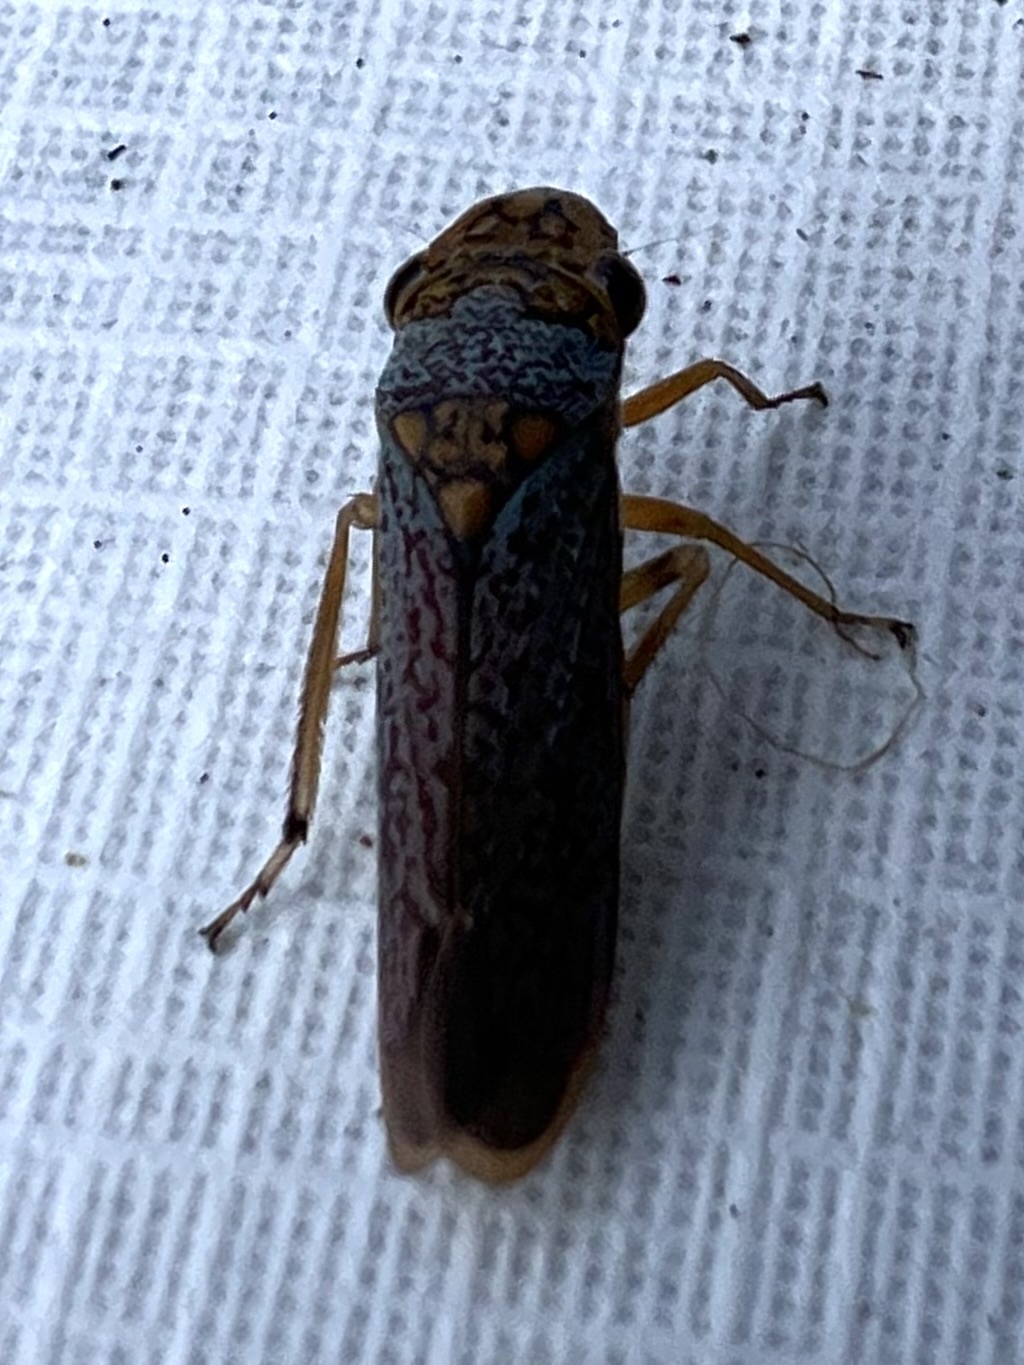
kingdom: Animalia
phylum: Arthropoda
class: Insecta
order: Hemiptera
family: Cicadellidae
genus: Oncometopia
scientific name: Oncometopia orbona
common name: Broad-headed sharpshooter
